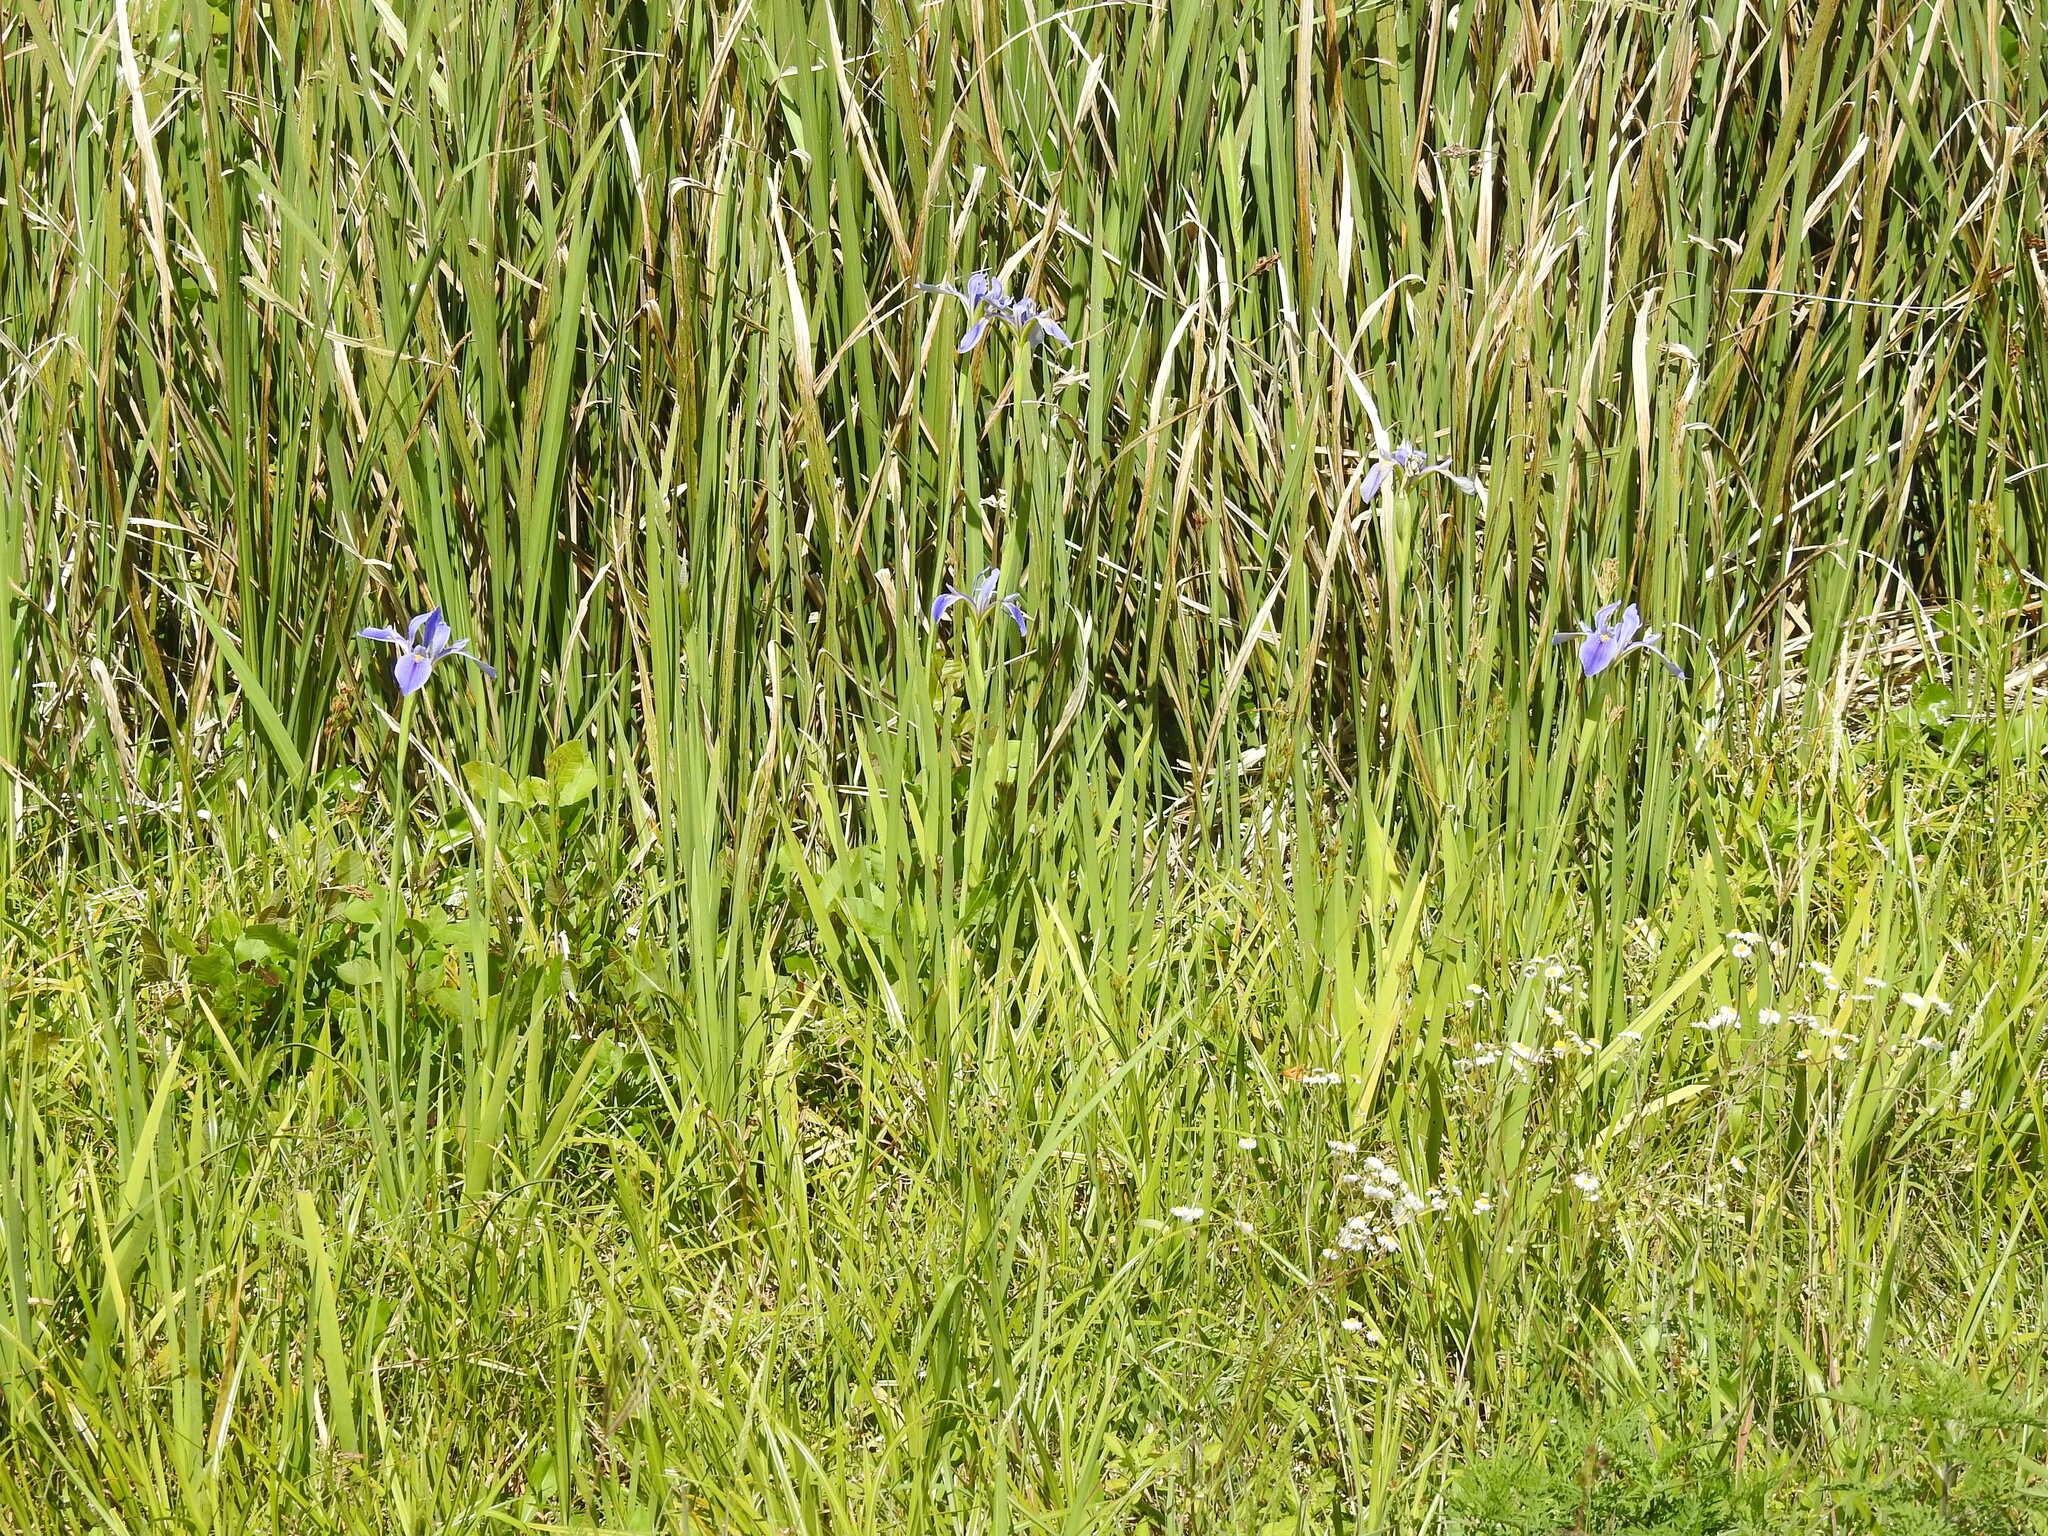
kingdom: Plantae
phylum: Tracheophyta
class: Liliopsida
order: Asparagales
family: Iridaceae
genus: Iris
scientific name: Iris savannarum
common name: Prairie iris
